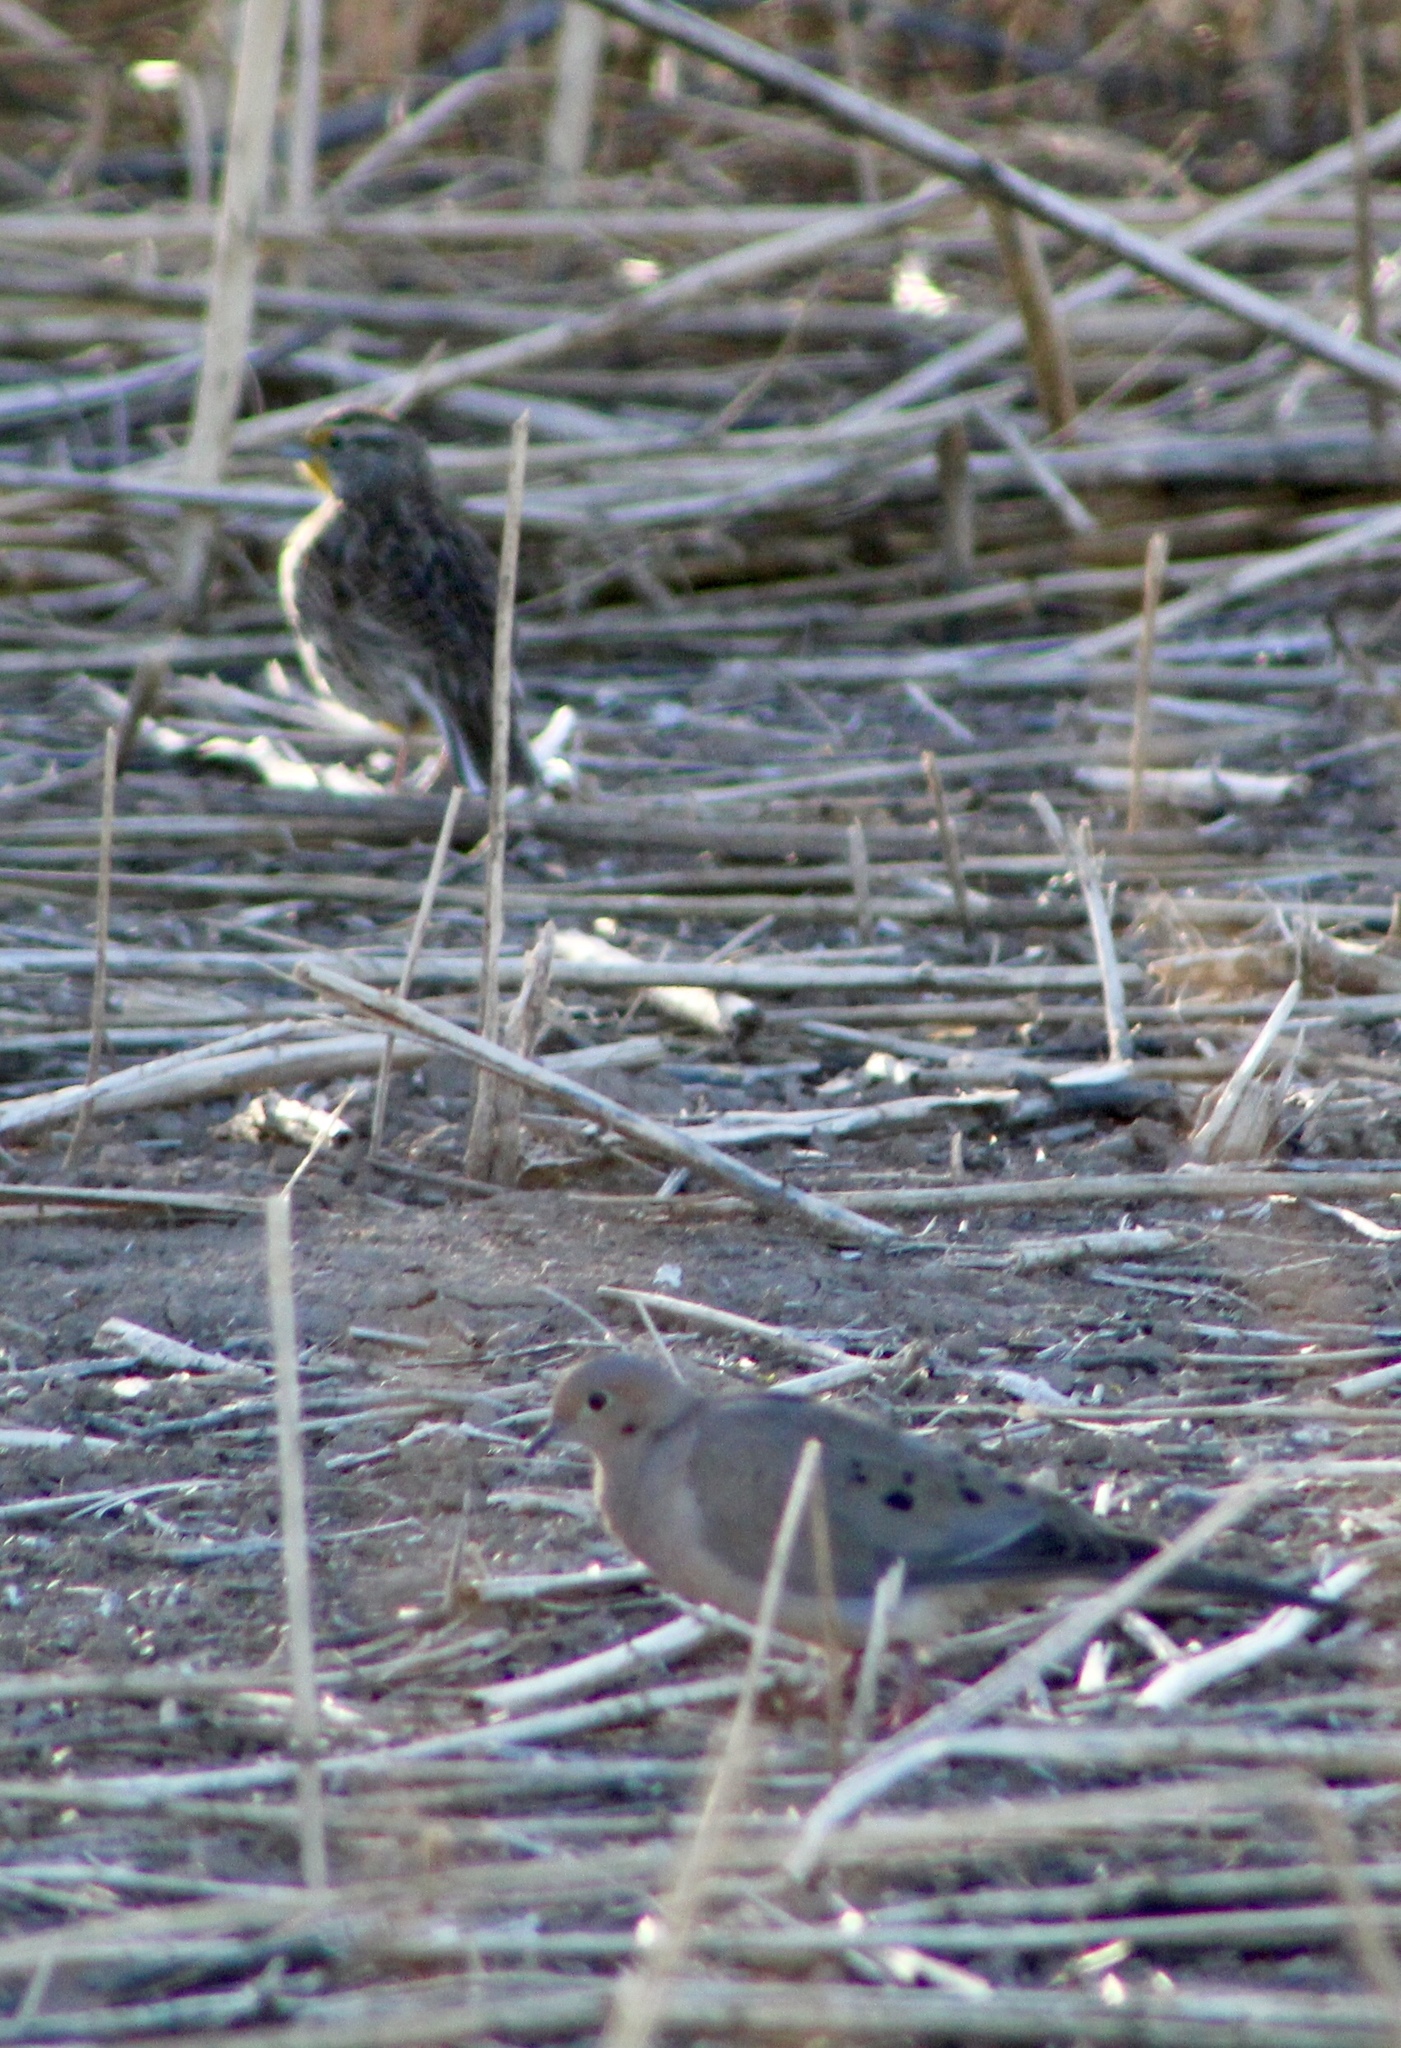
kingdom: Animalia
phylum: Chordata
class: Aves
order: Columbiformes
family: Columbidae
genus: Zenaida
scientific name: Zenaida macroura
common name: Mourning dove
